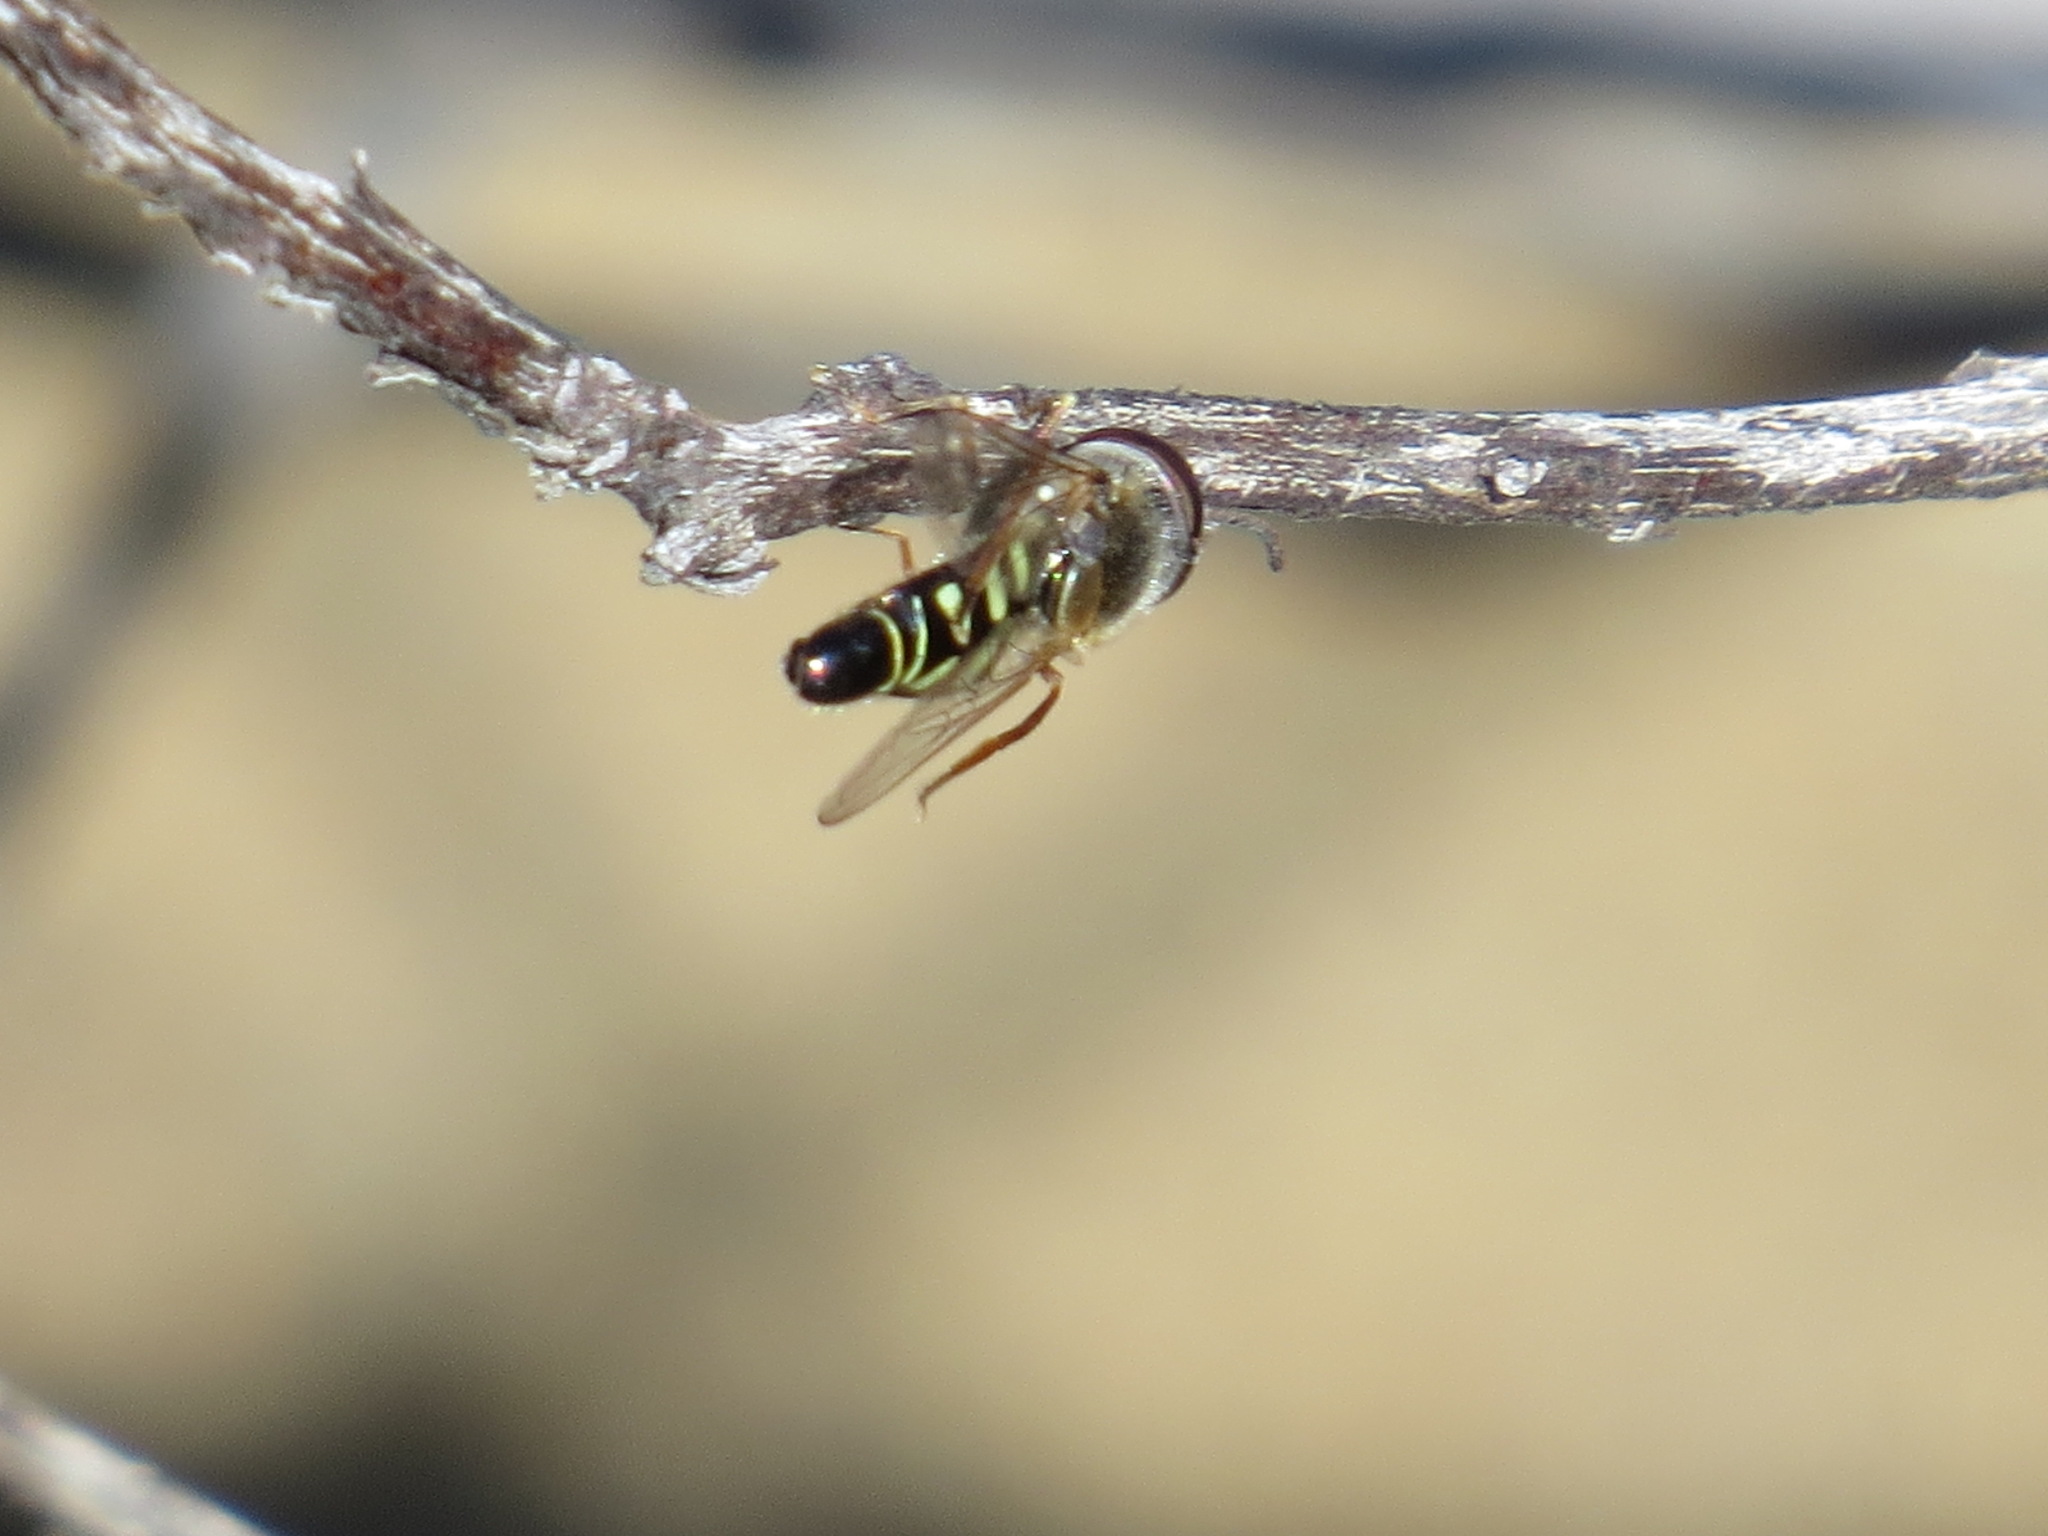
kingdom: Animalia
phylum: Arthropoda
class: Insecta
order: Diptera
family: Syrphidae
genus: Eupeodes
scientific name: Eupeodes volucris
